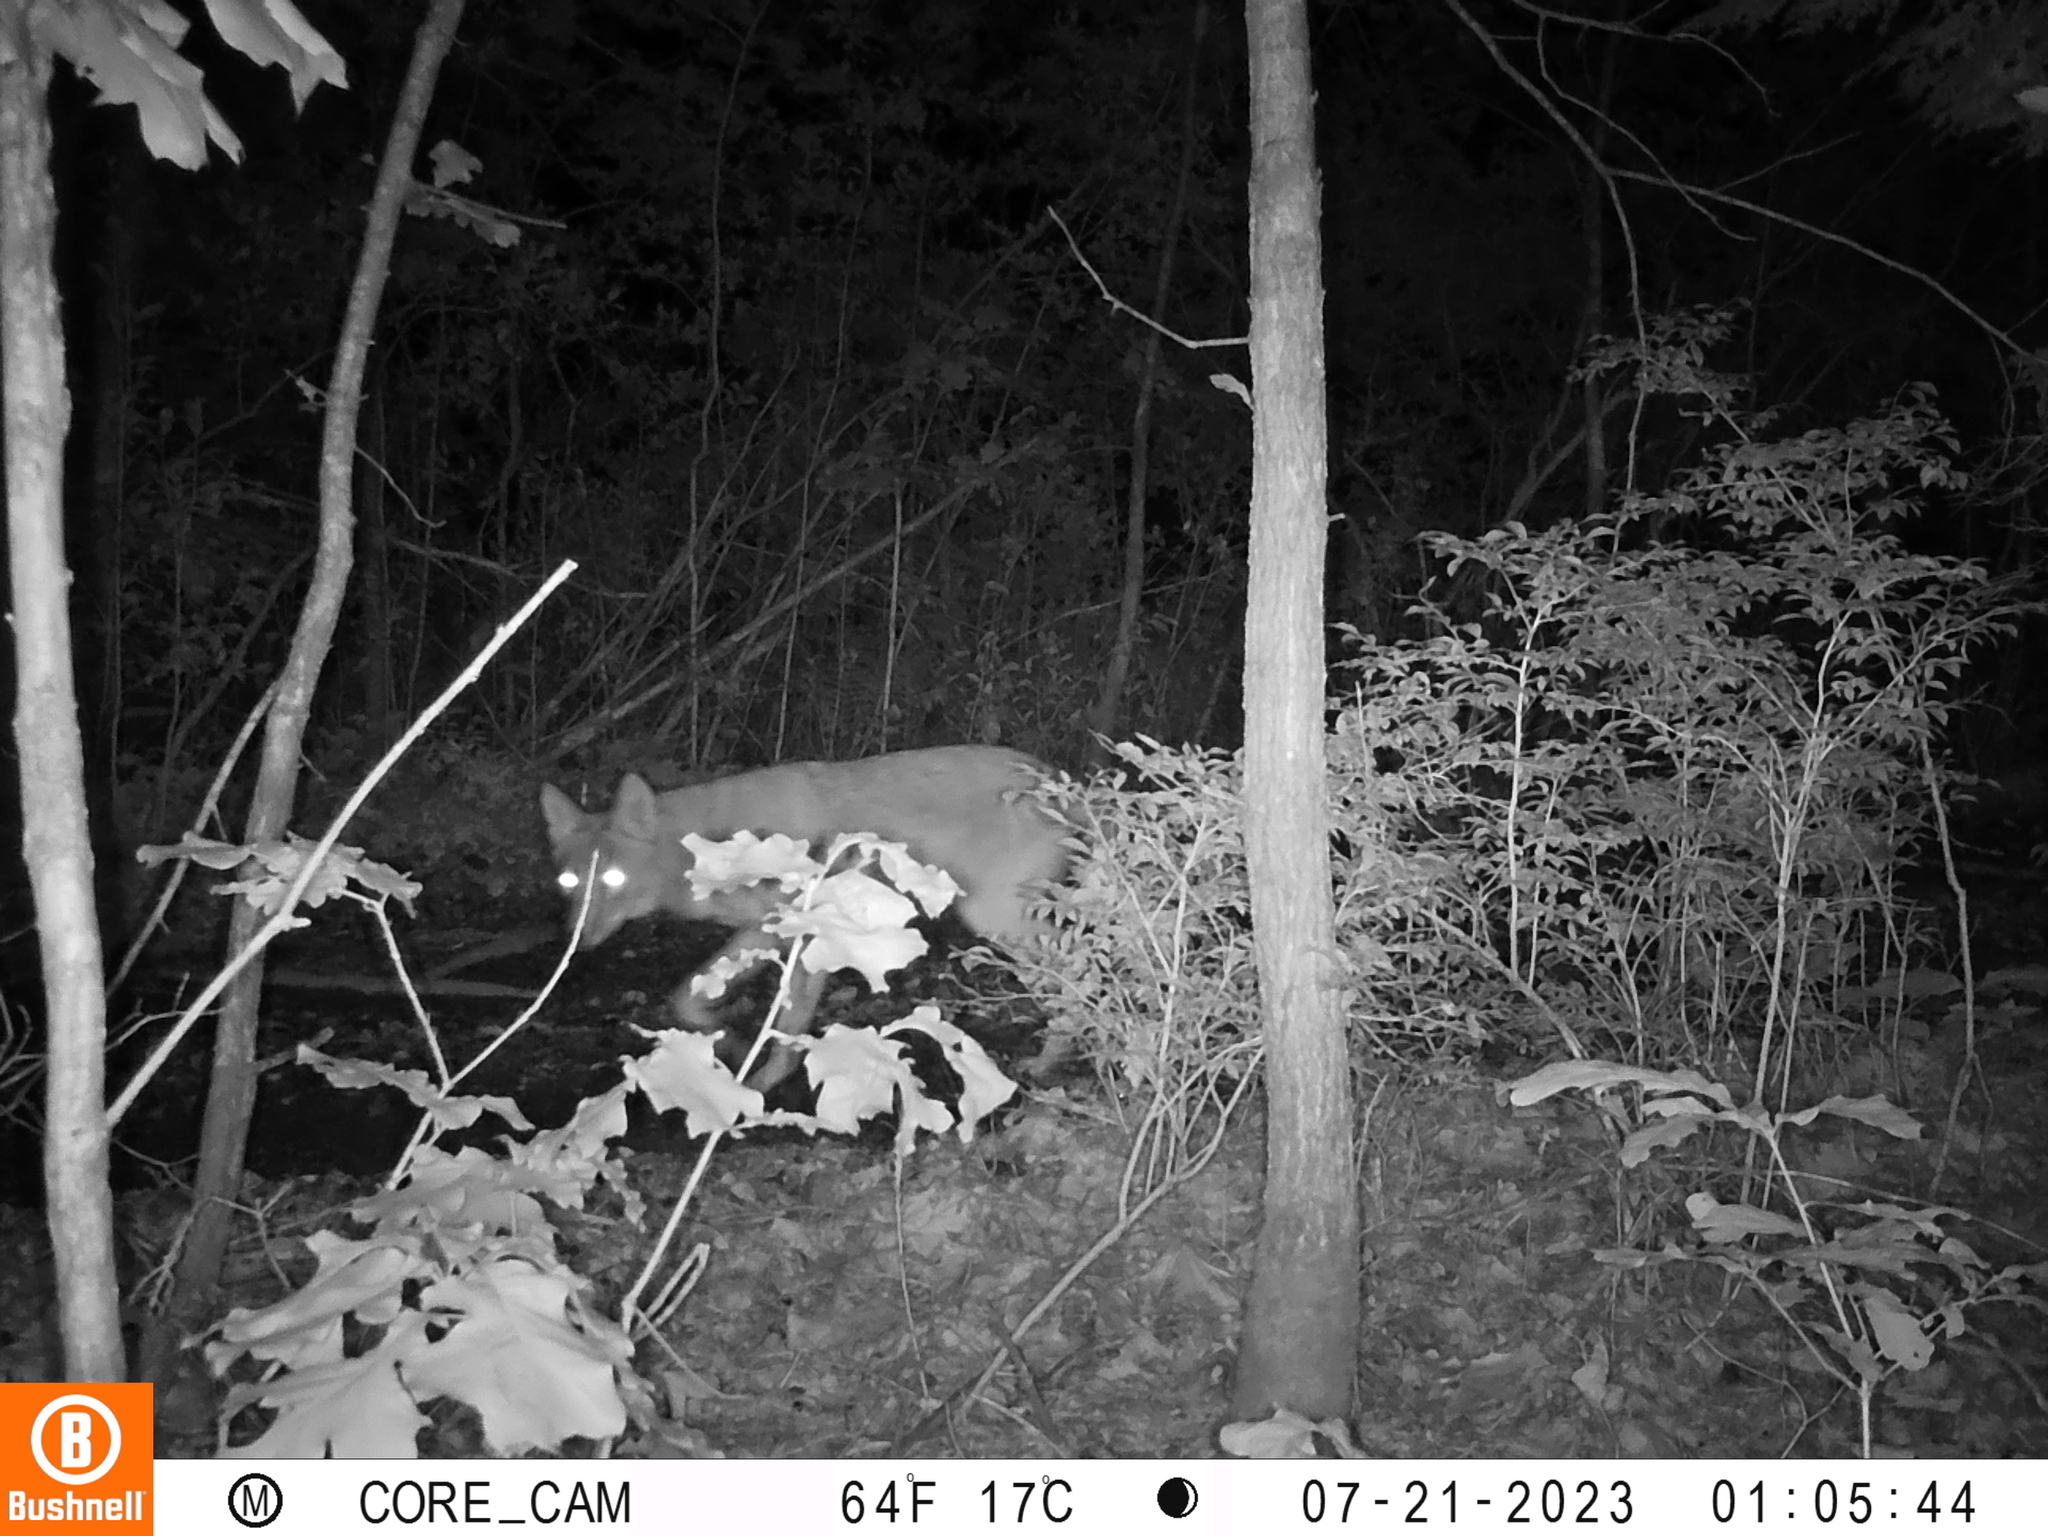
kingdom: Animalia
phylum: Chordata
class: Mammalia
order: Carnivora
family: Canidae
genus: Canis
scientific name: Canis latrans
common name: Coyote
